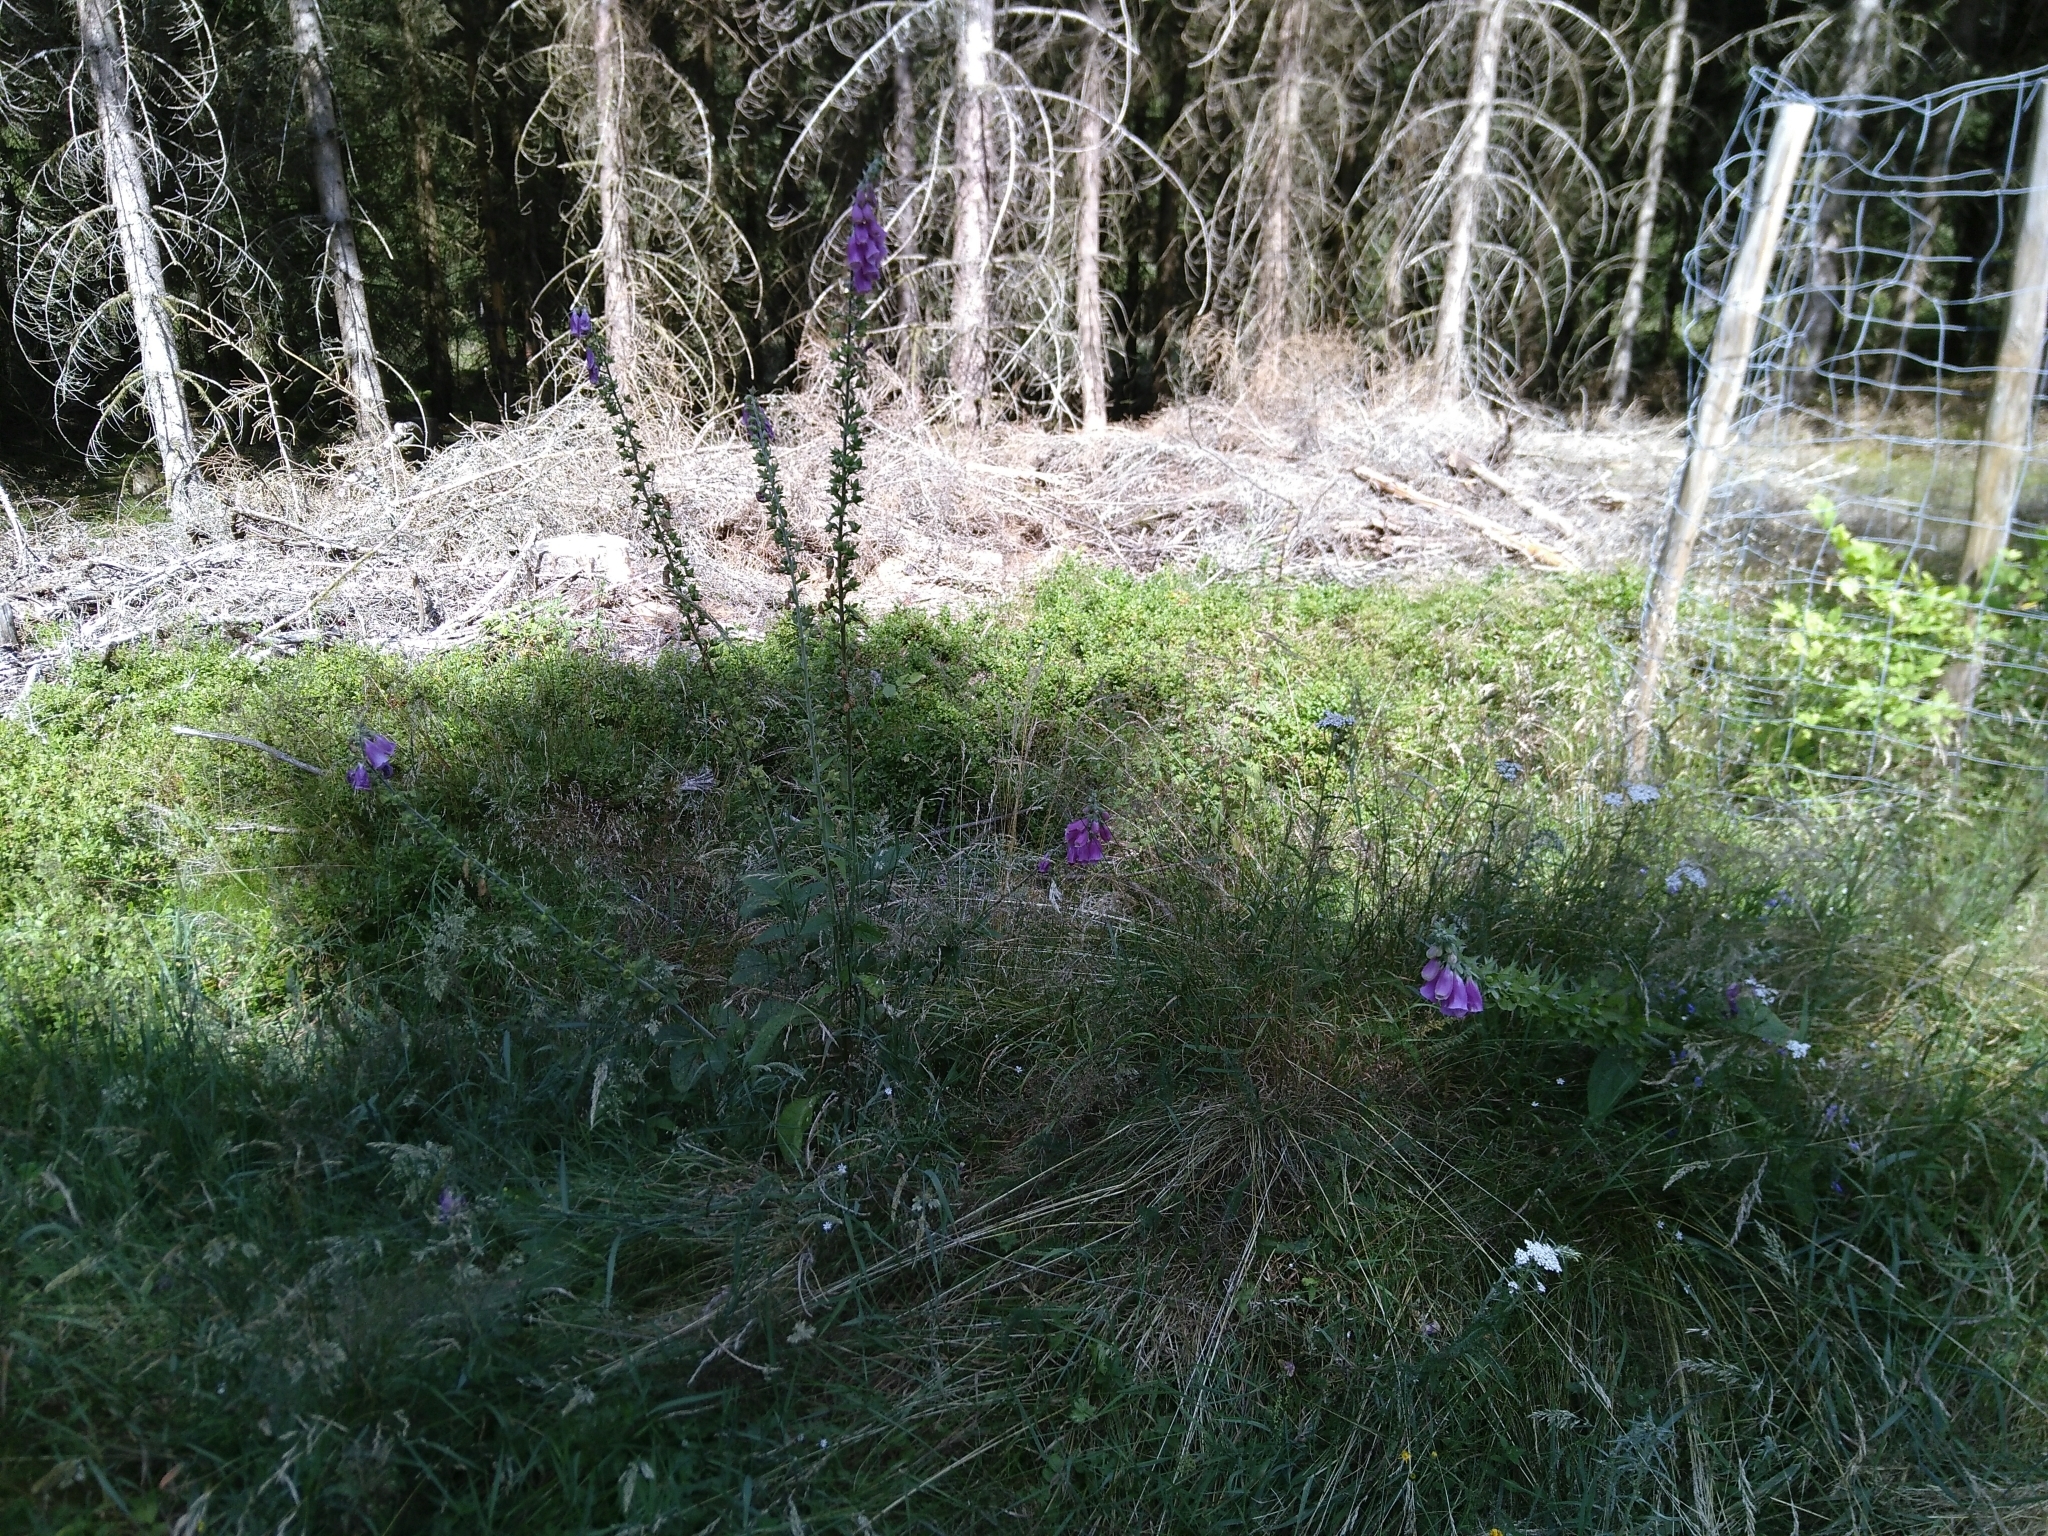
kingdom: Plantae
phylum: Tracheophyta
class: Magnoliopsida
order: Lamiales
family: Plantaginaceae
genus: Digitalis
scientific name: Digitalis purpurea
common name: Foxglove
